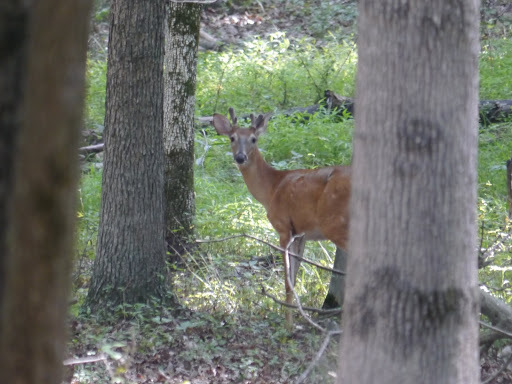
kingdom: Animalia
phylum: Chordata
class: Mammalia
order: Artiodactyla
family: Cervidae
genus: Odocoileus
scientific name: Odocoileus virginianus
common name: White-tailed deer
